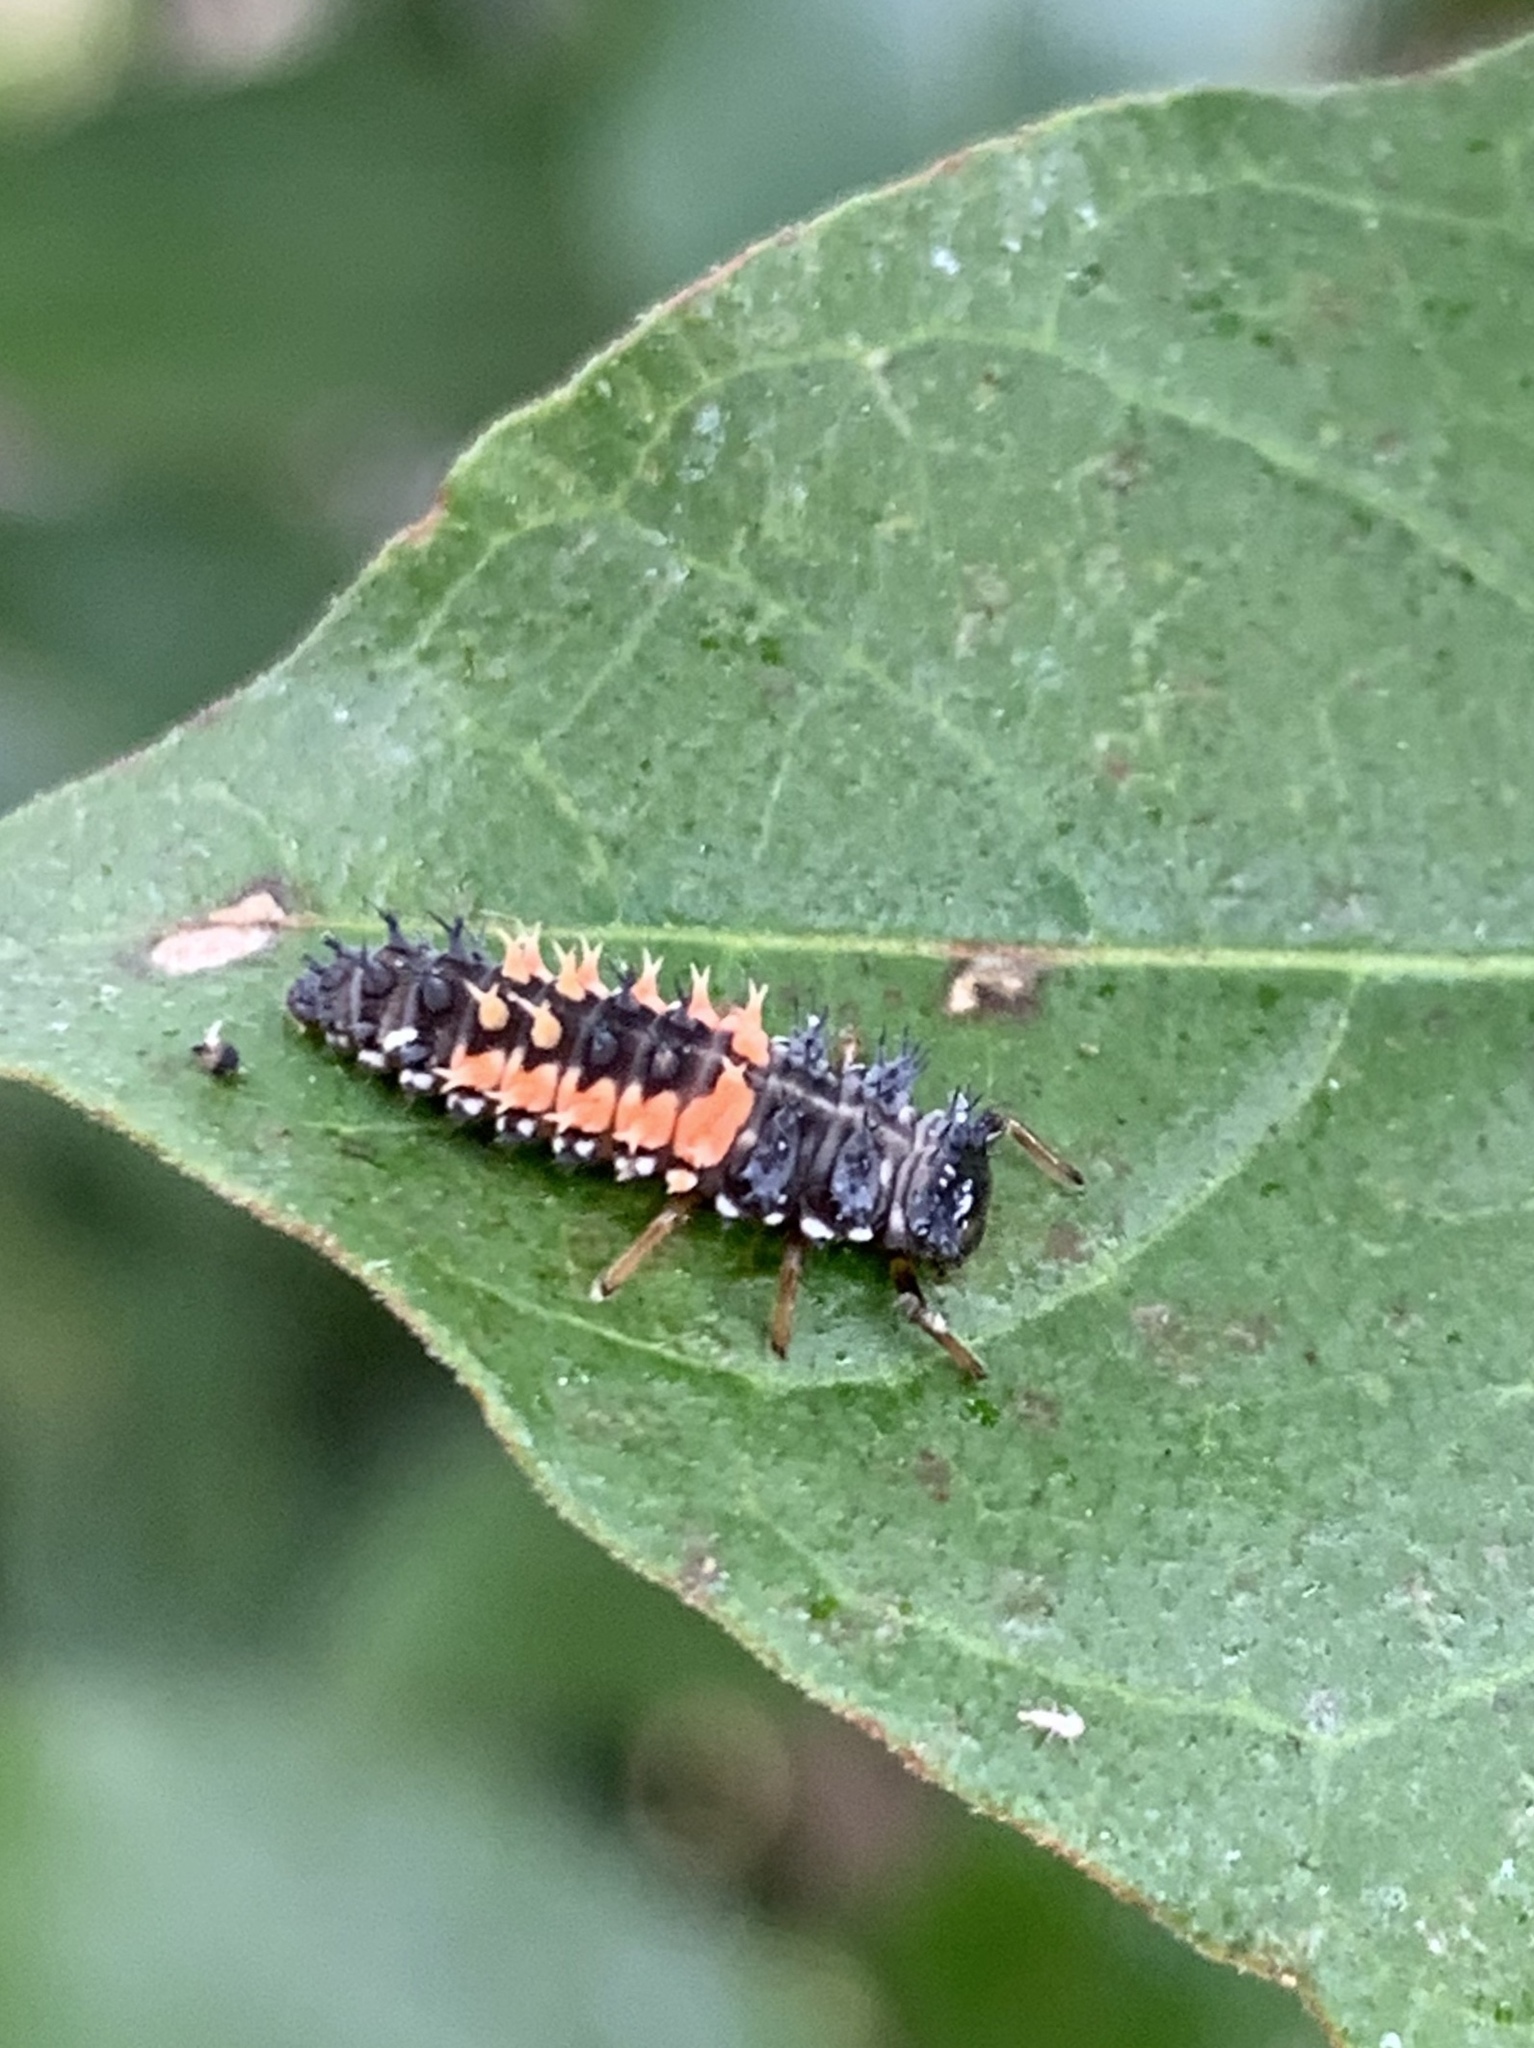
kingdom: Animalia
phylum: Arthropoda
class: Insecta
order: Coleoptera
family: Coccinellidae
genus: Harmonia
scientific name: Harmonia axyridis
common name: Harlequin ladybird
